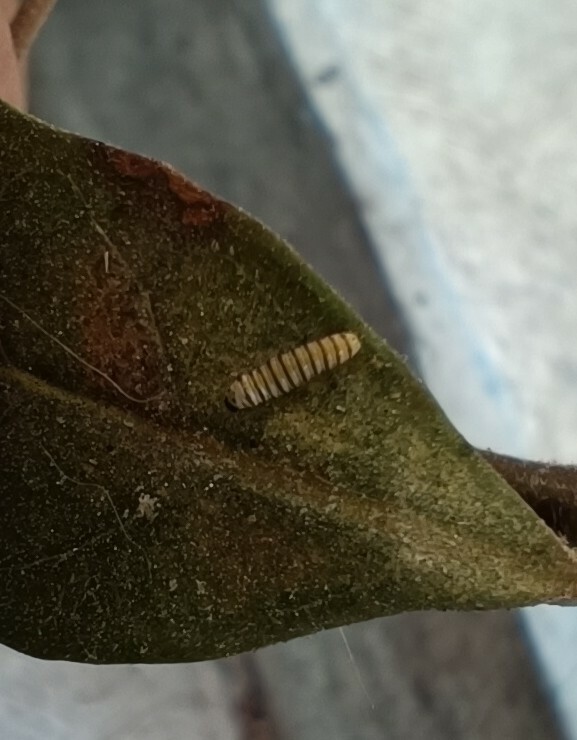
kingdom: Animalia
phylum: Arthropoda
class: Insecta
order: Lepidoptera
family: Nymphalidae
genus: Danaus
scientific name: Danaus plexippus
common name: Monarch
